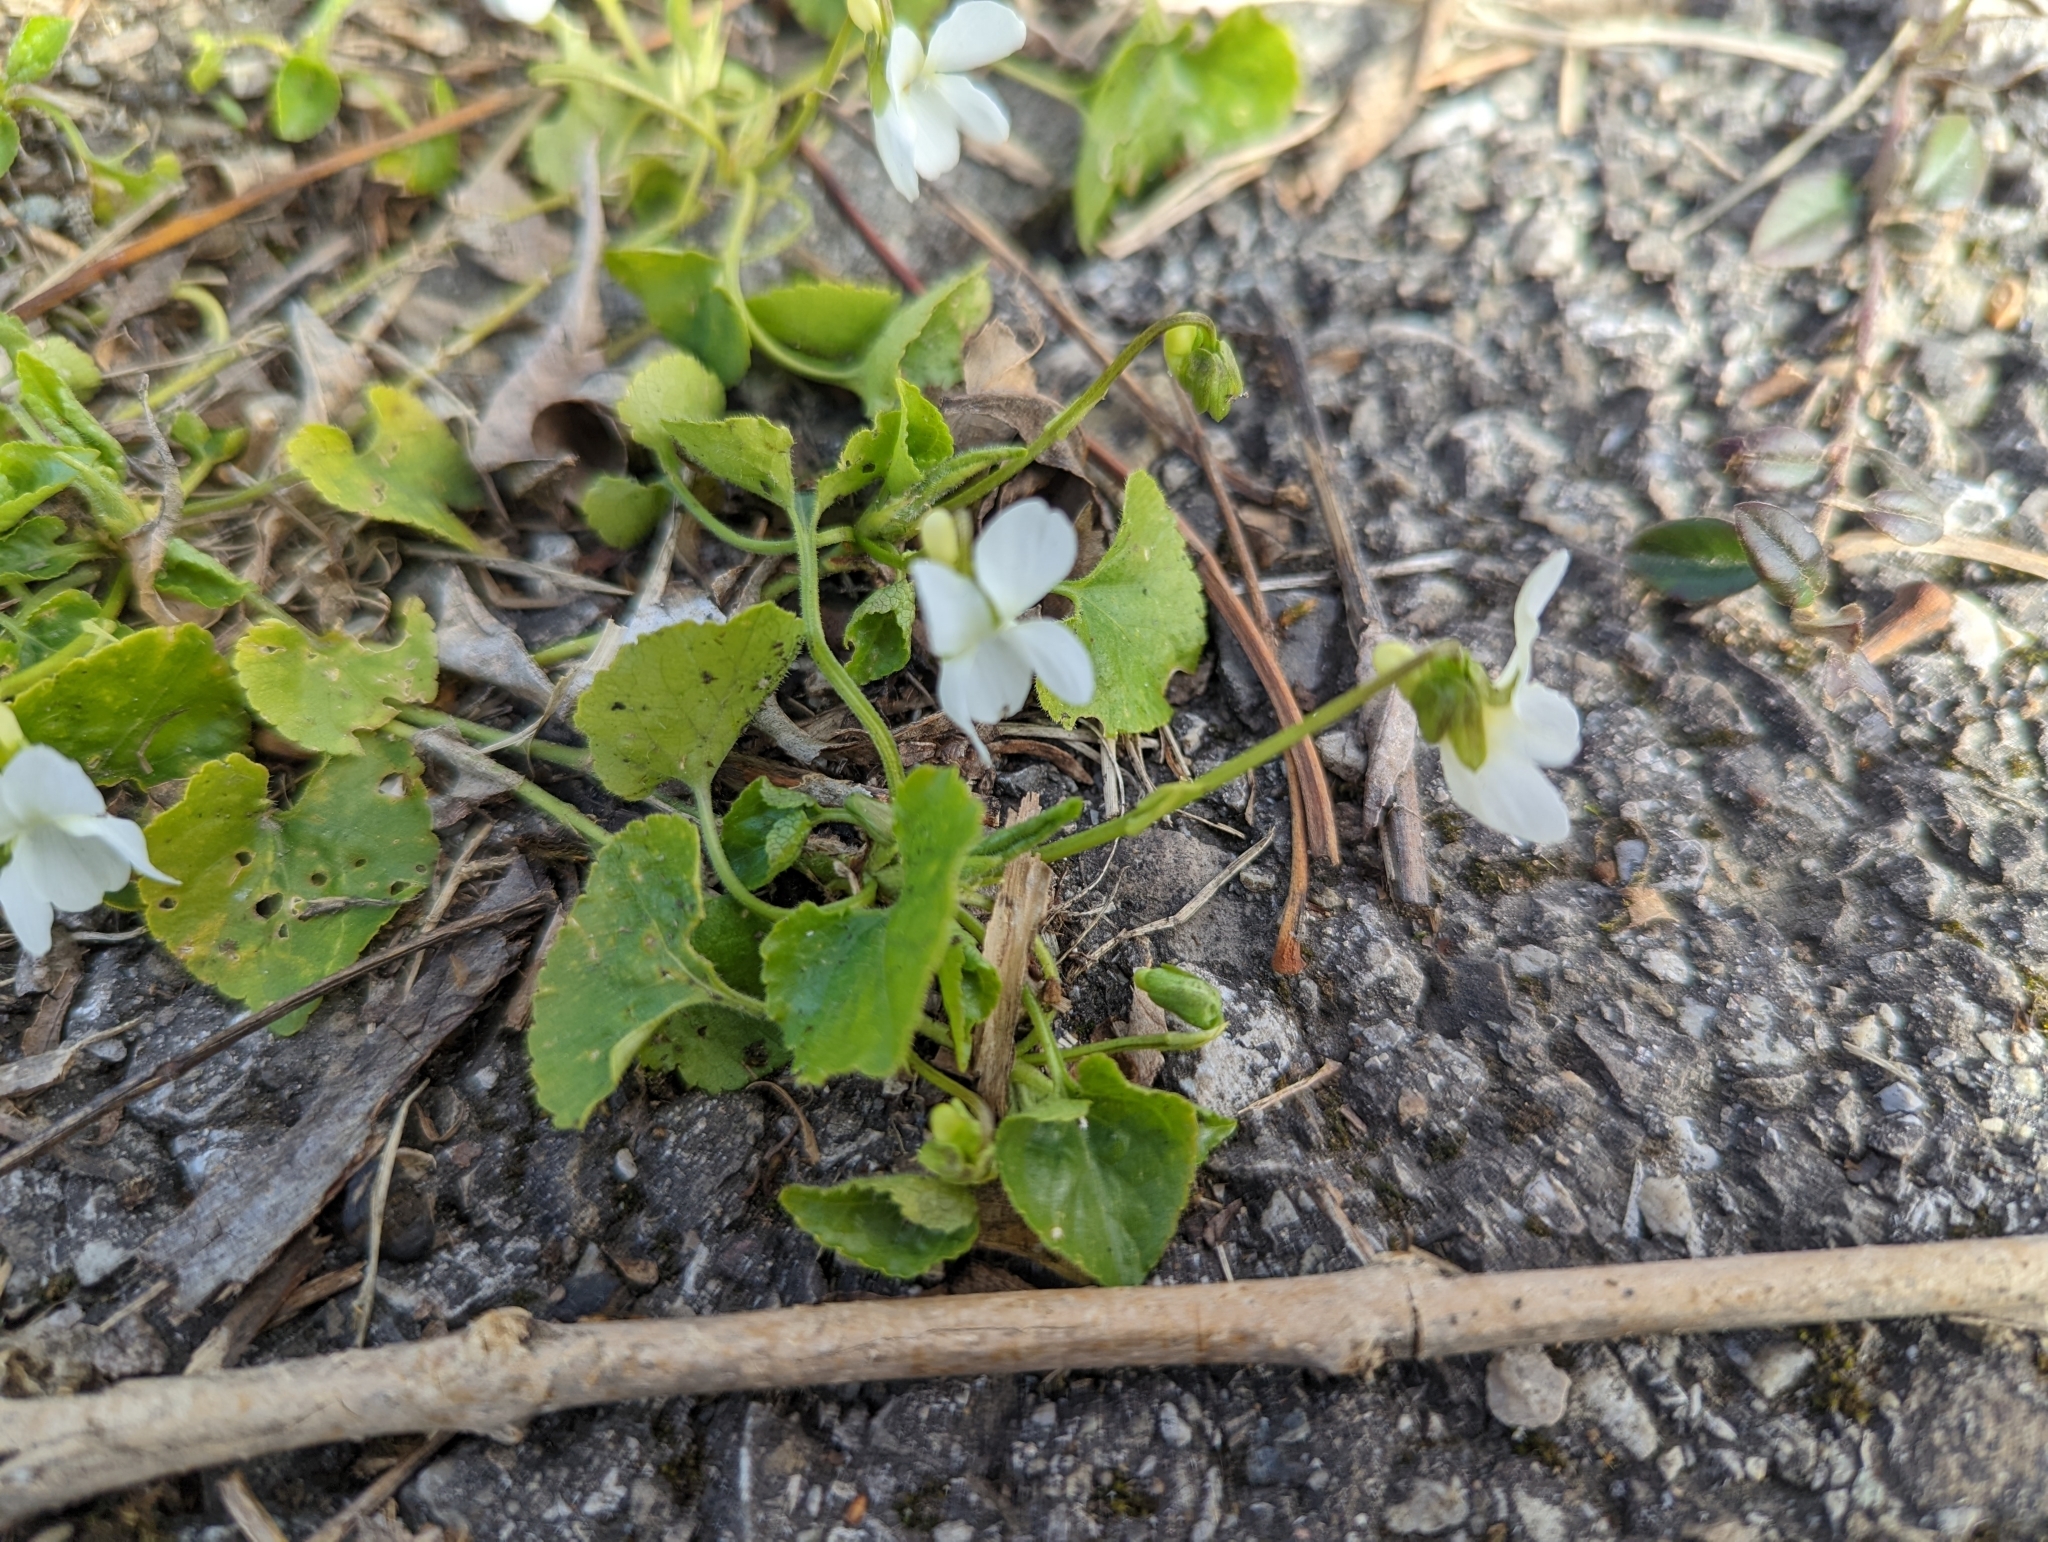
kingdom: Plantae
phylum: Tracheophyta
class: Magnoliopsida
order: Malpighiales
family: Violaceae
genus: Viola
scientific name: Viola alba
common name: White violet
